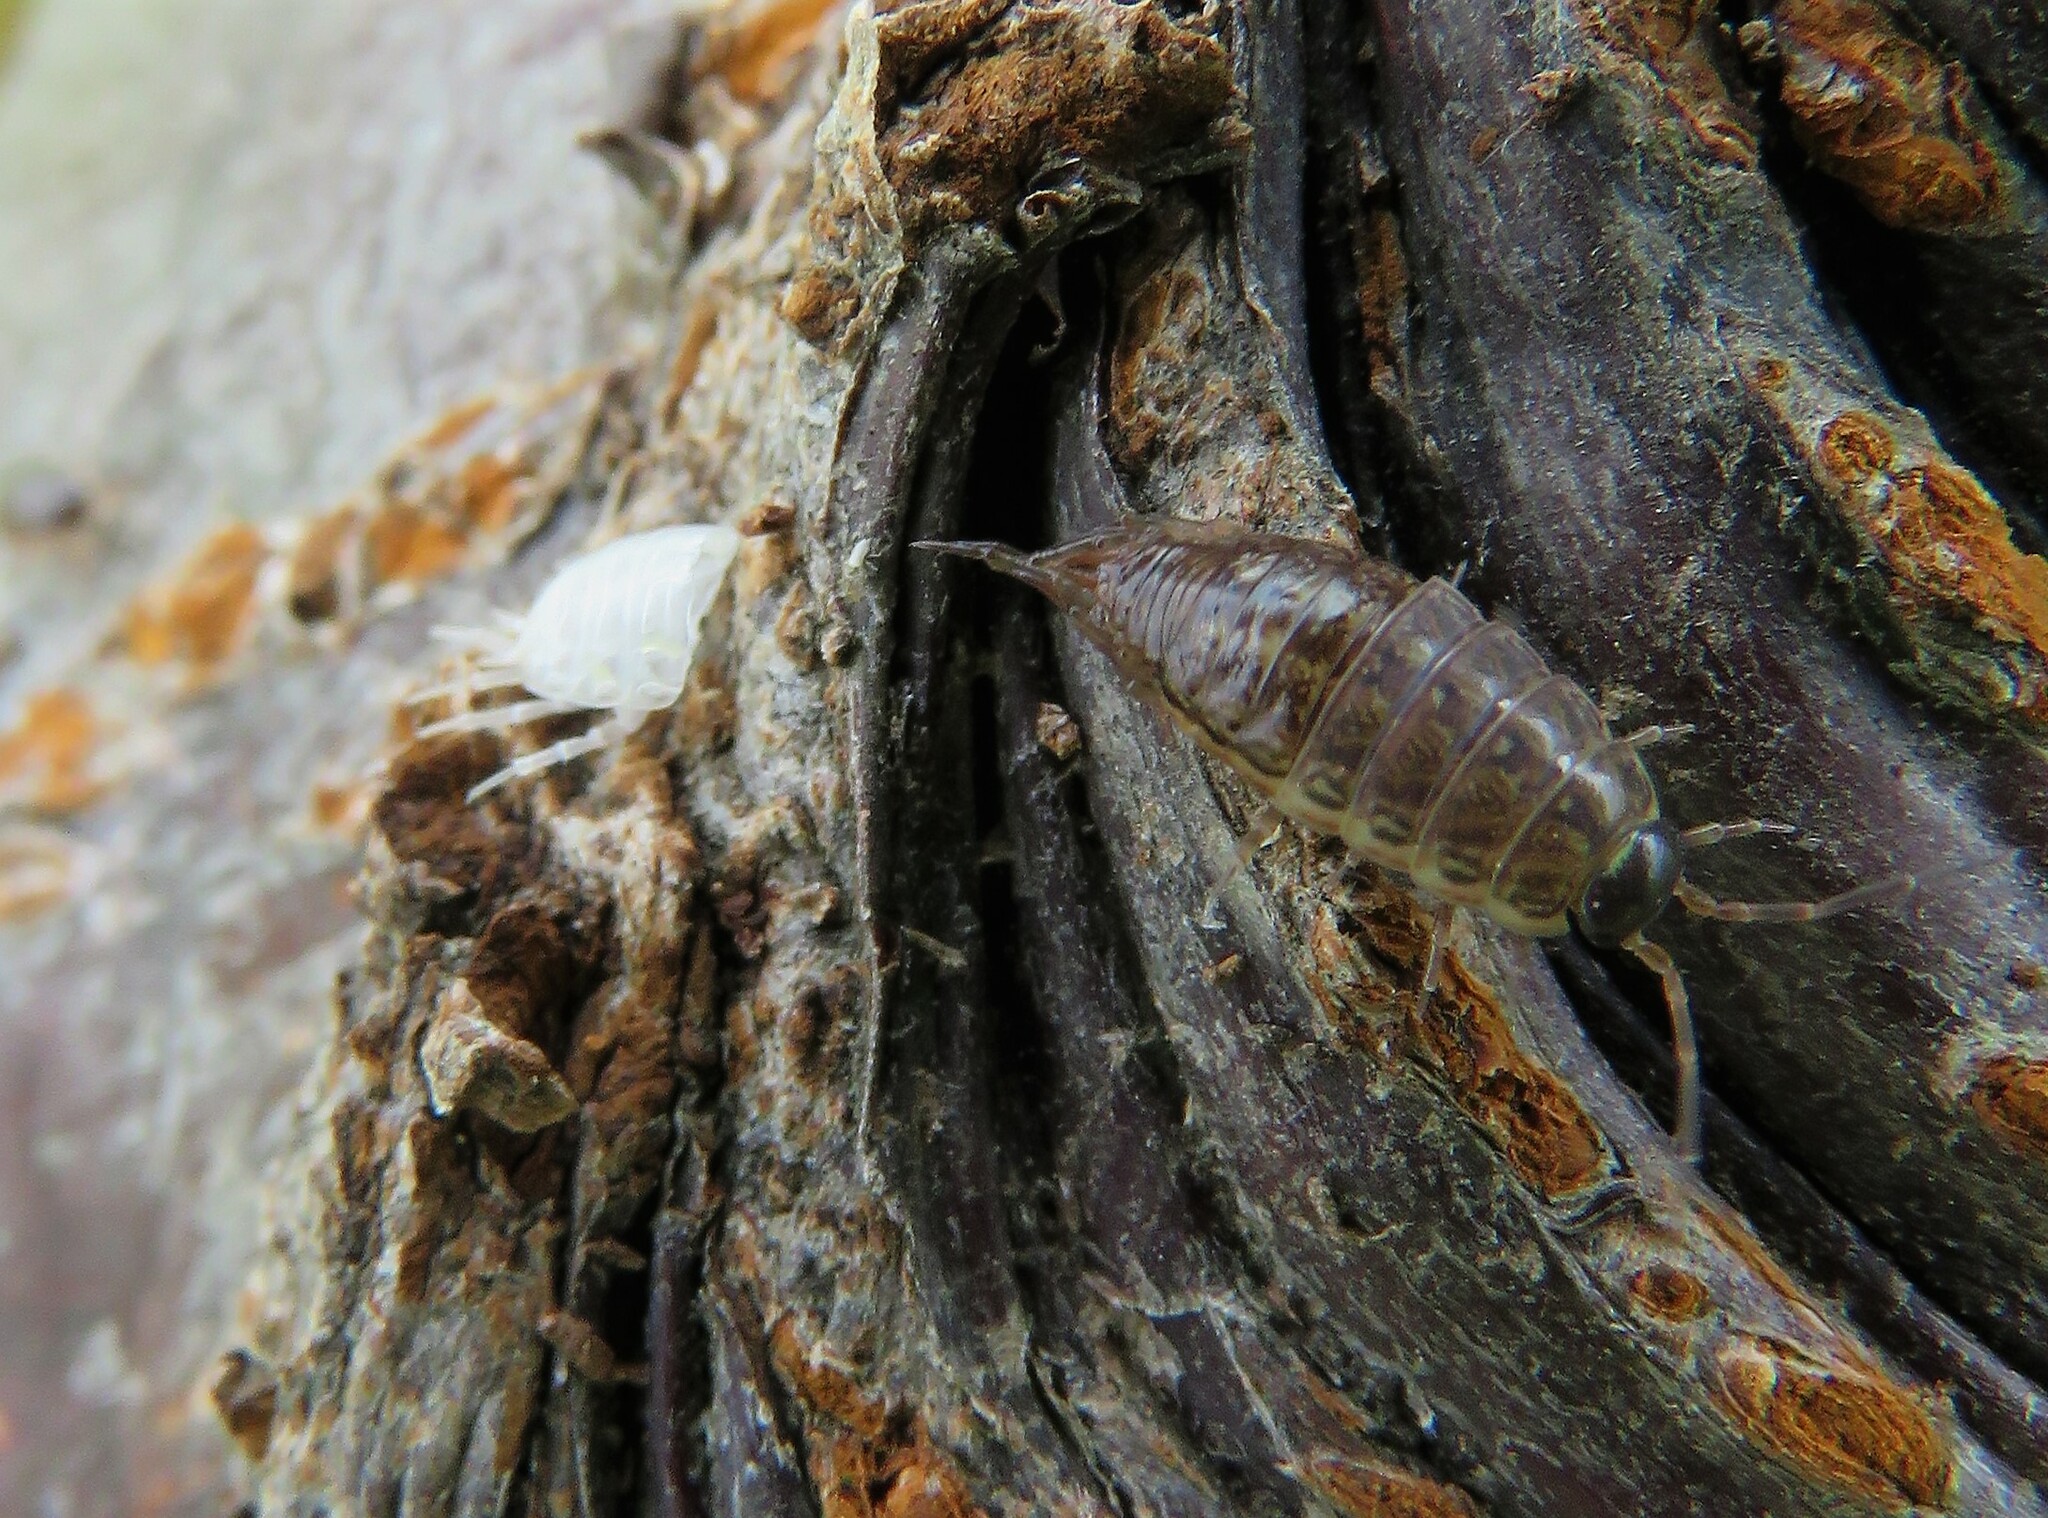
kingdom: Animalia
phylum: Arthropoda
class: Malacostraca
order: Isopoda
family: Philosciidae
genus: Philoscia
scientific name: Philoscia muscorum
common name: Common striped woodlouse
